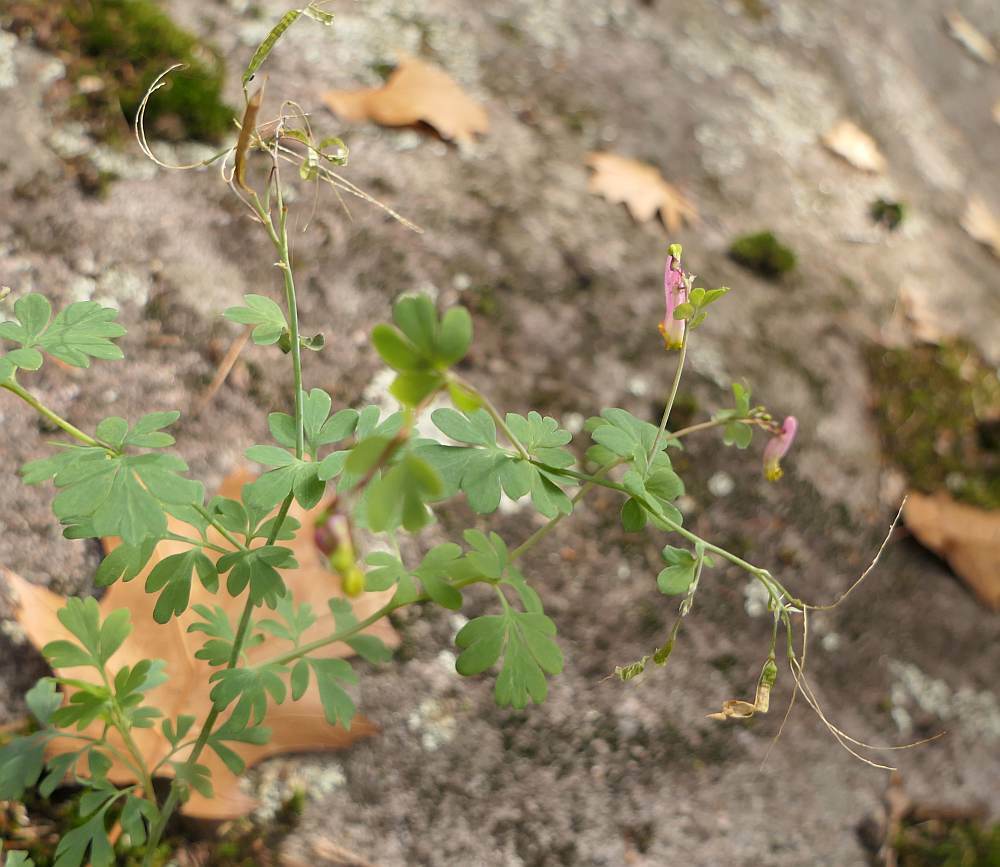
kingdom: Plantae
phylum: Tracheophyta
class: Magnoliopsida
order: Ranunculales
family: Papaveraceae
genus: Capnoides
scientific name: Capnoides sempervirens
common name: Rock harlequin
